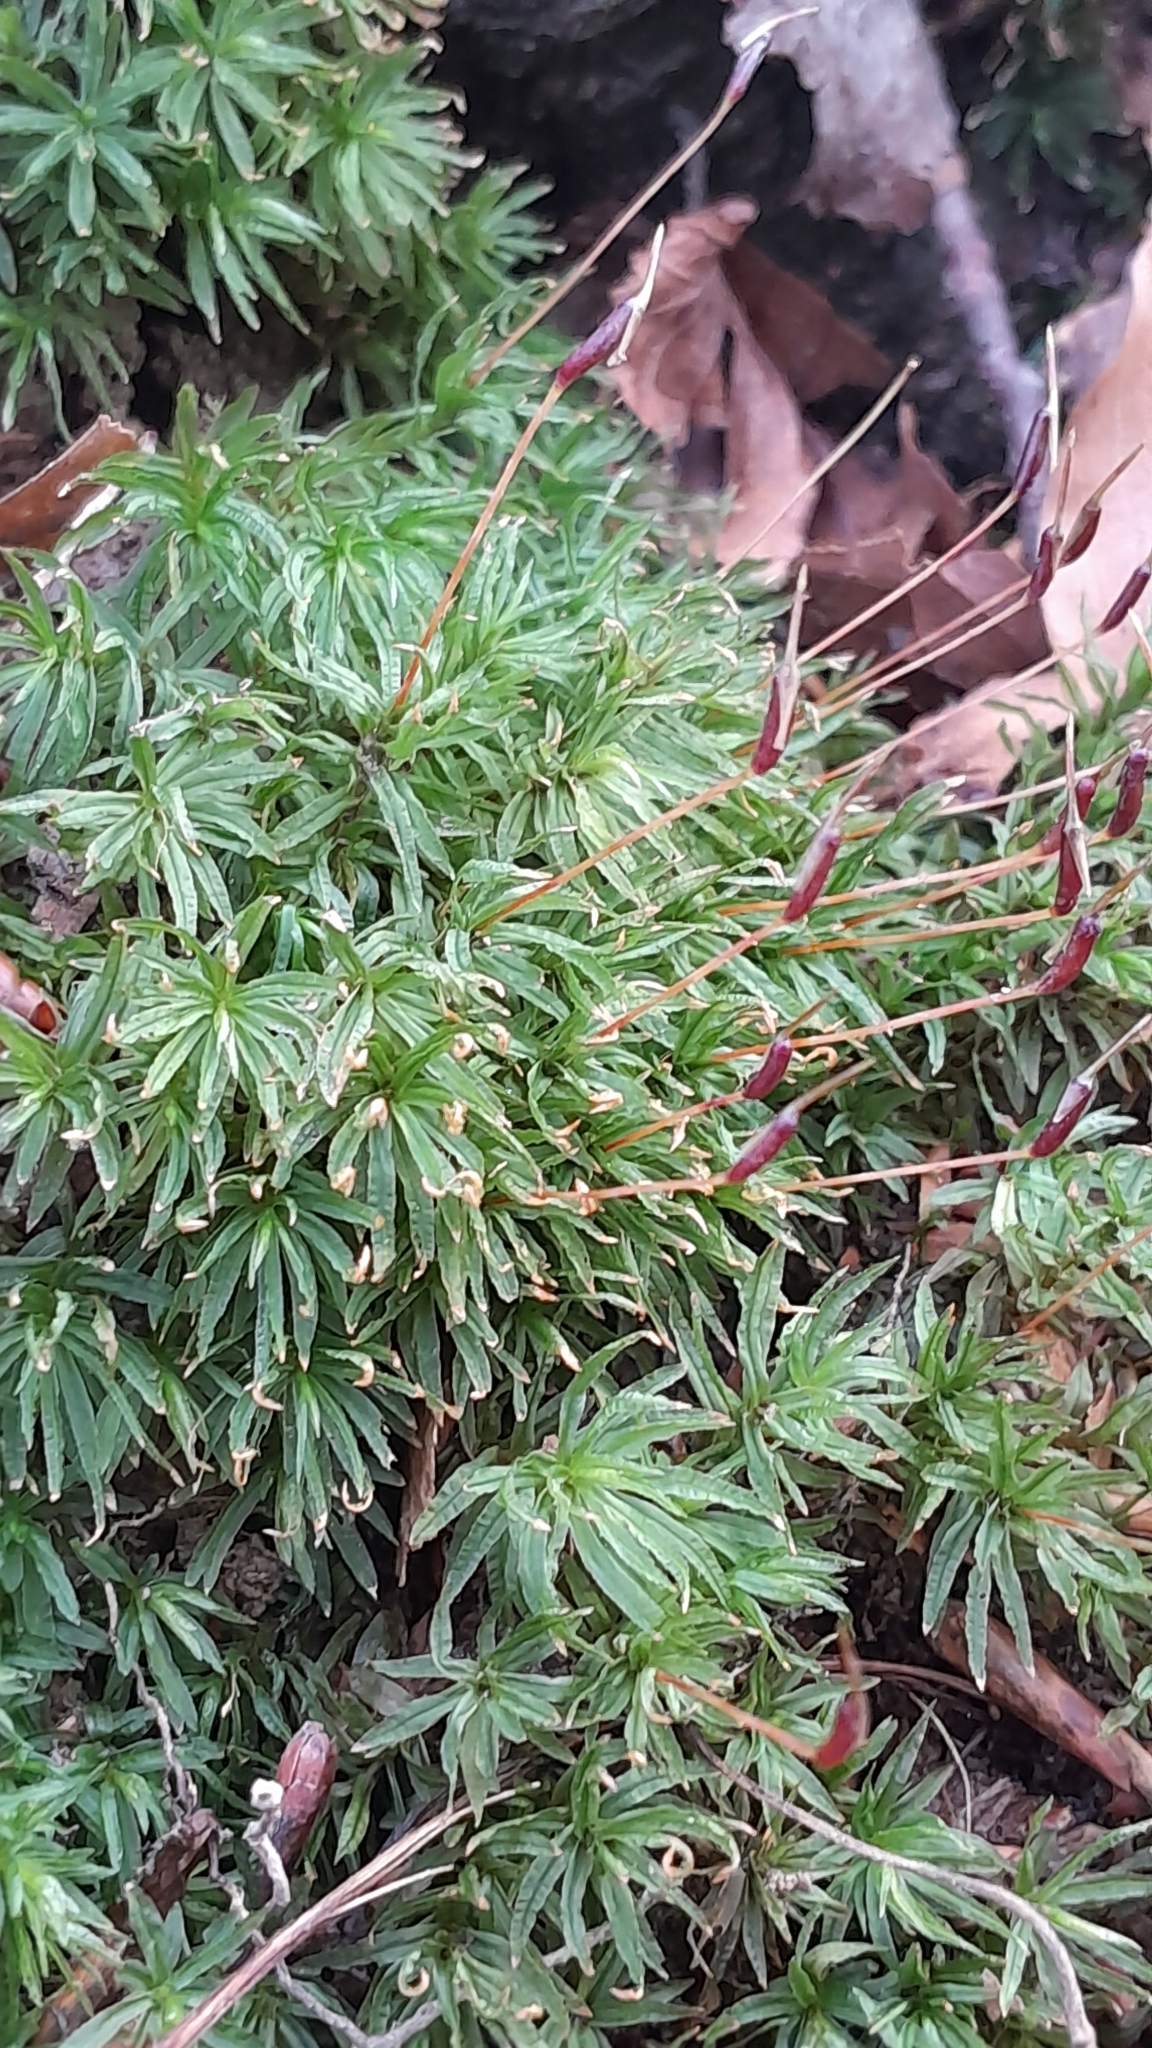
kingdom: Plantae
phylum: Bryophyta
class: Polytrichopsida
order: Polytrichales
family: Polytrichaceae
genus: Atrichum
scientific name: Atrichum undulatum
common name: Common smoothcap
